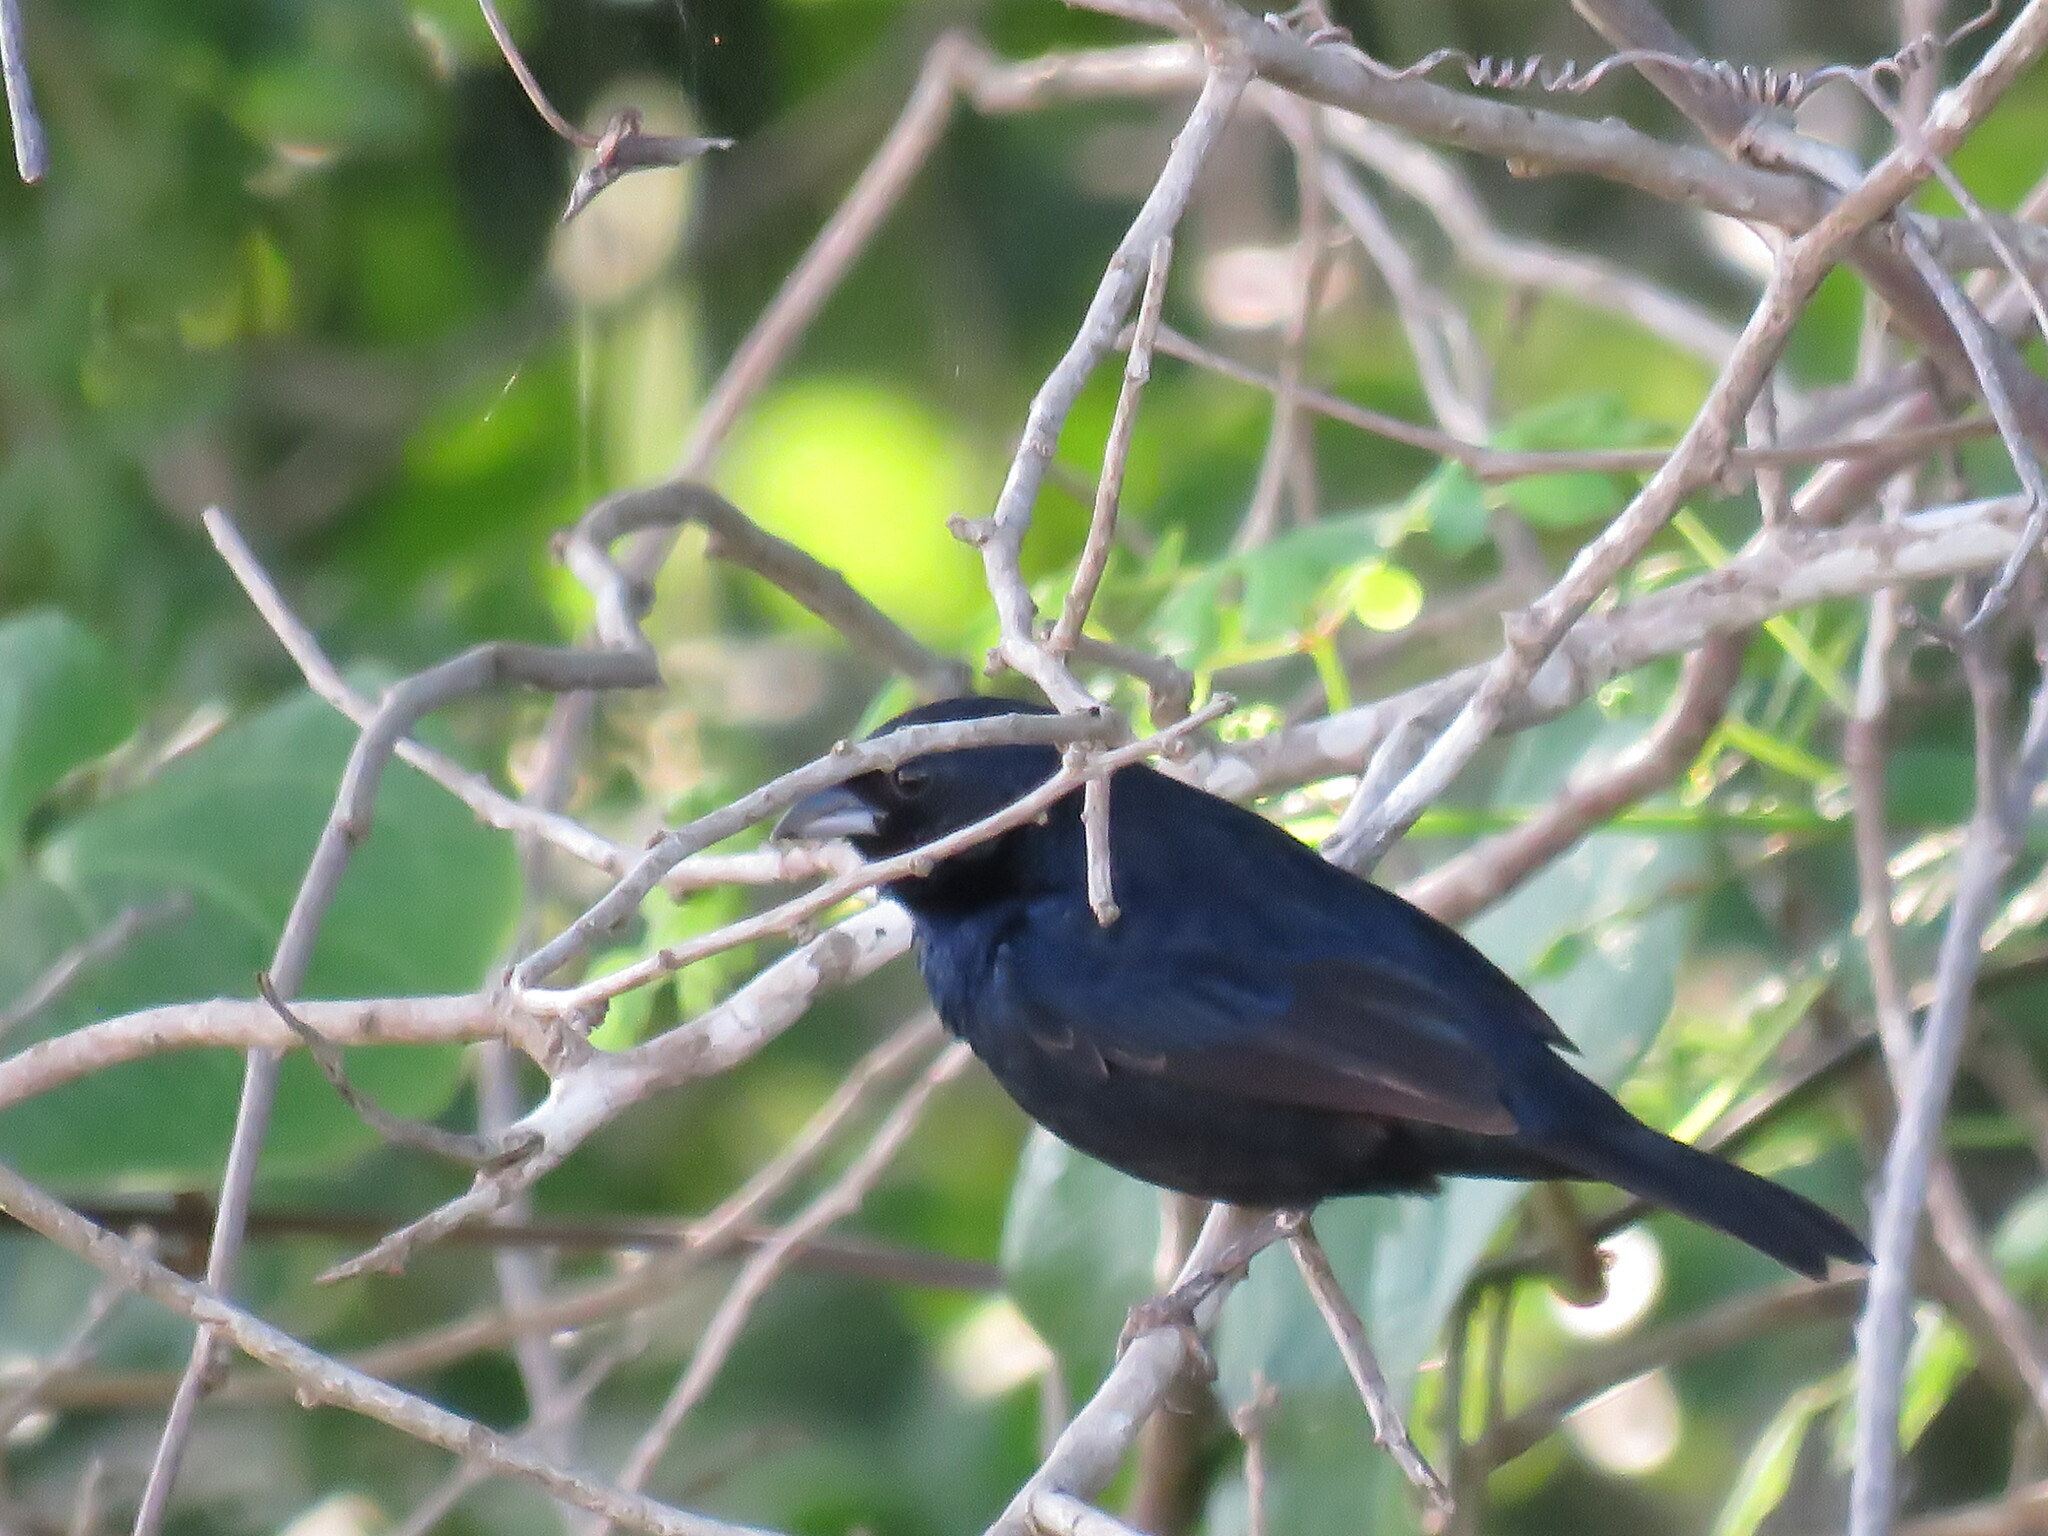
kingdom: Animalia
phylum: Chordata
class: Aves
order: Passeriformes
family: Thraupidae
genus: Volatinia
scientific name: Volatinia jacarina
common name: Blue-black grassquit
